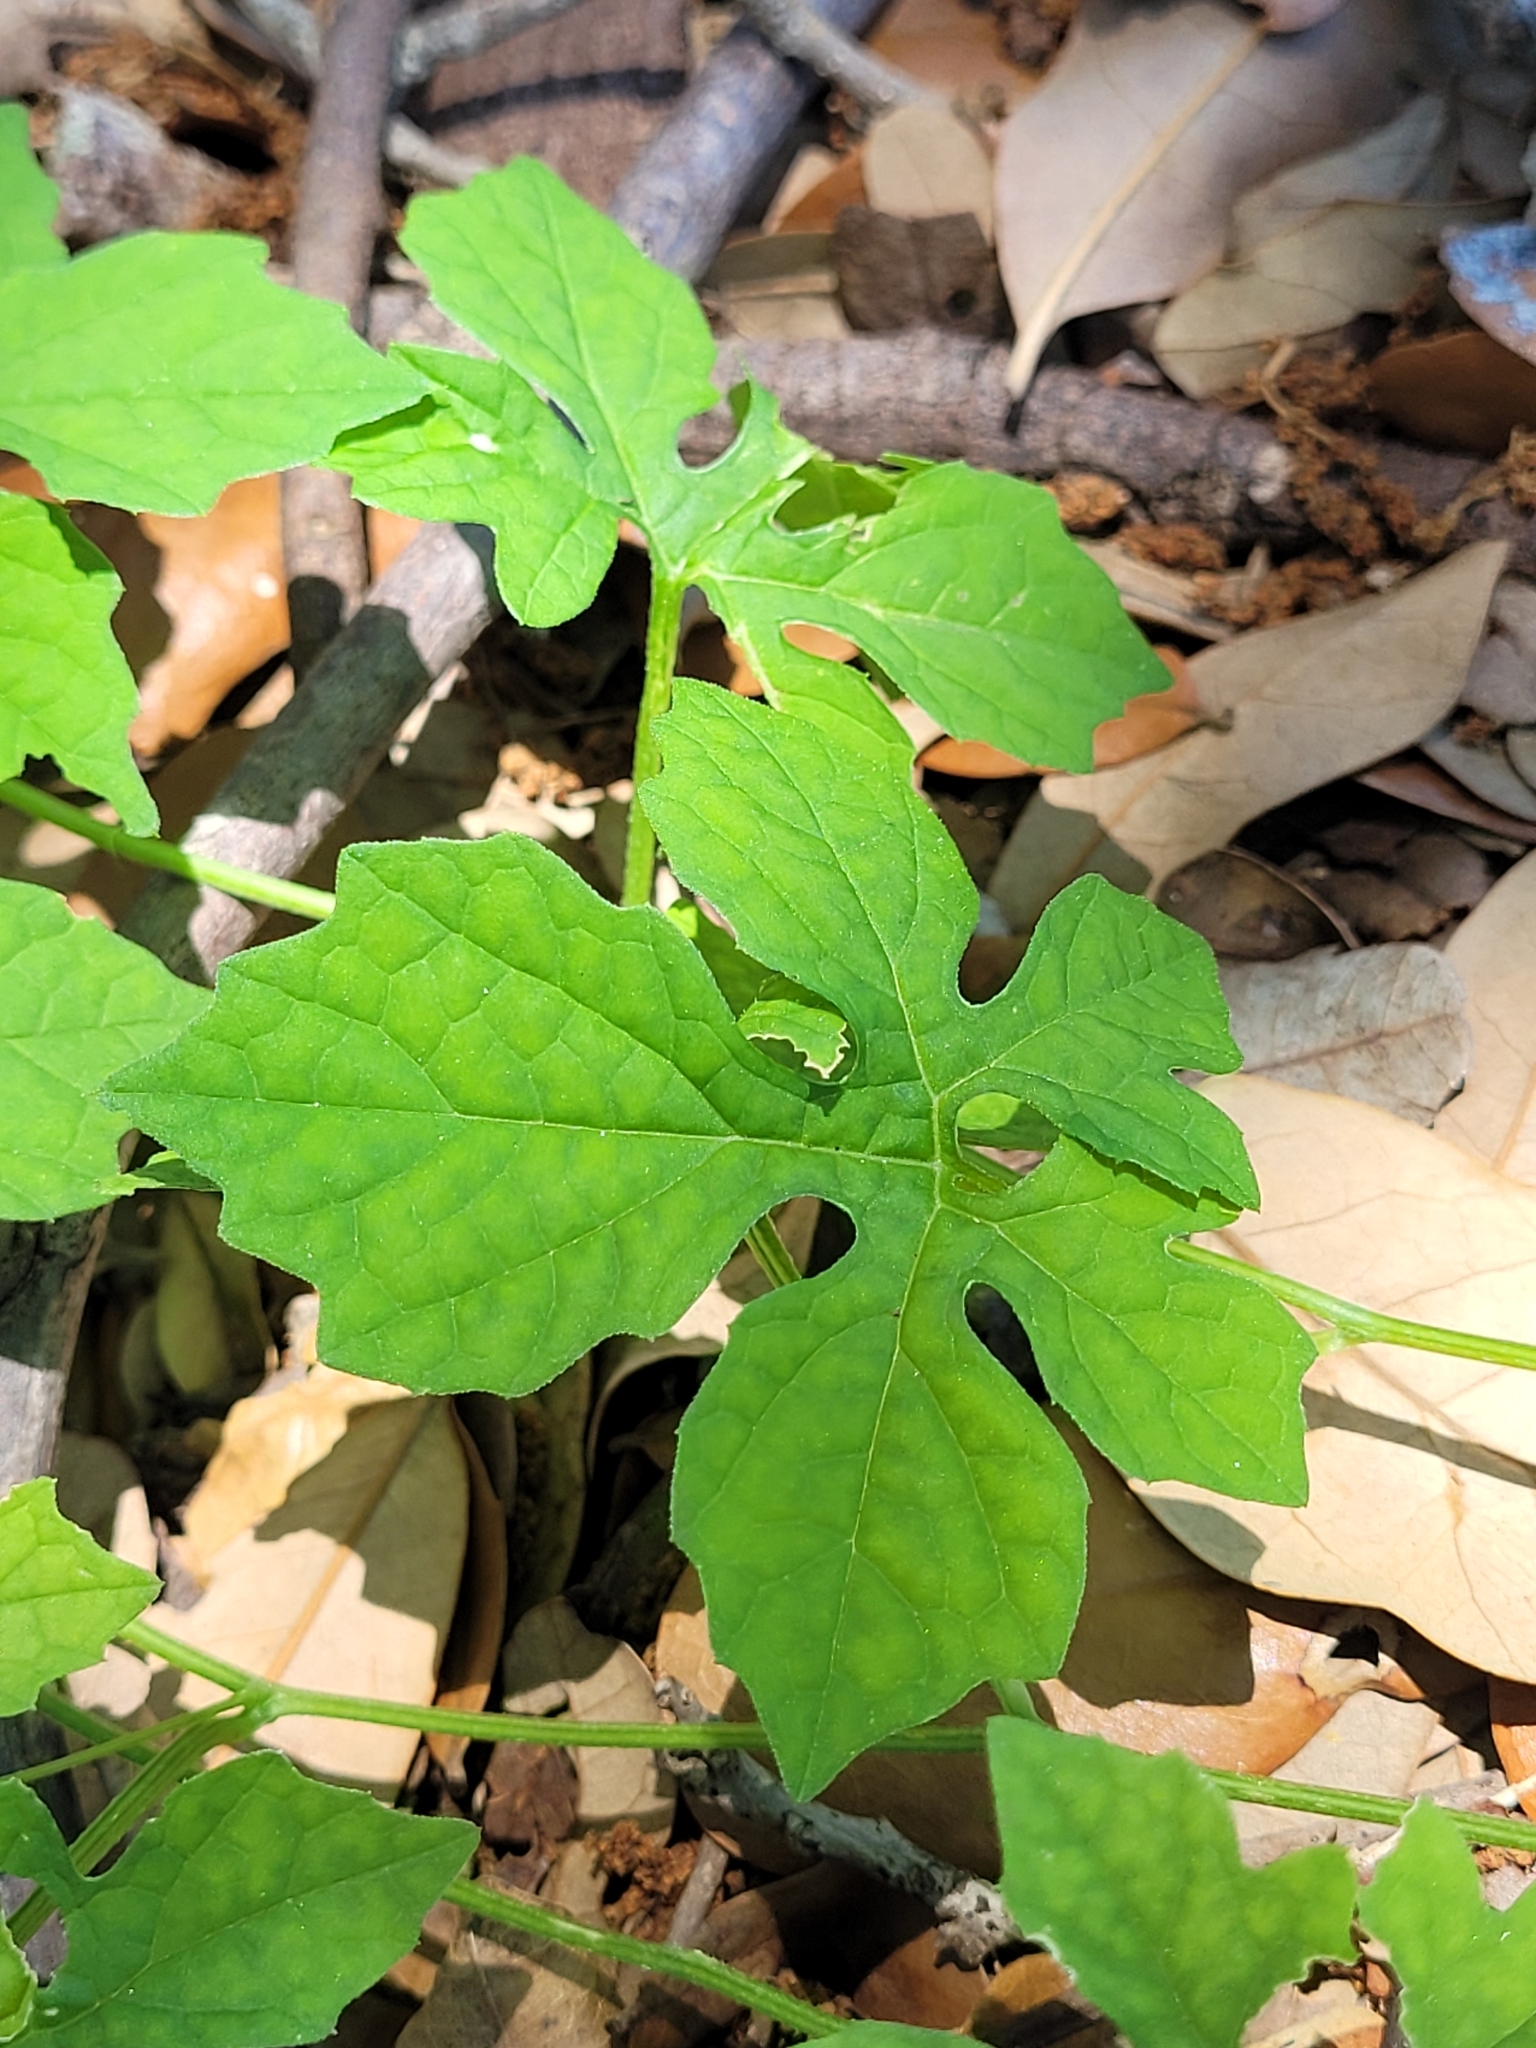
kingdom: Plantae
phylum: Tracheophyta
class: Magnoliopsida
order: Cucurbitales
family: Cucurbitaceae
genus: Momordica
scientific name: Momordica charantia
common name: Balsampear
